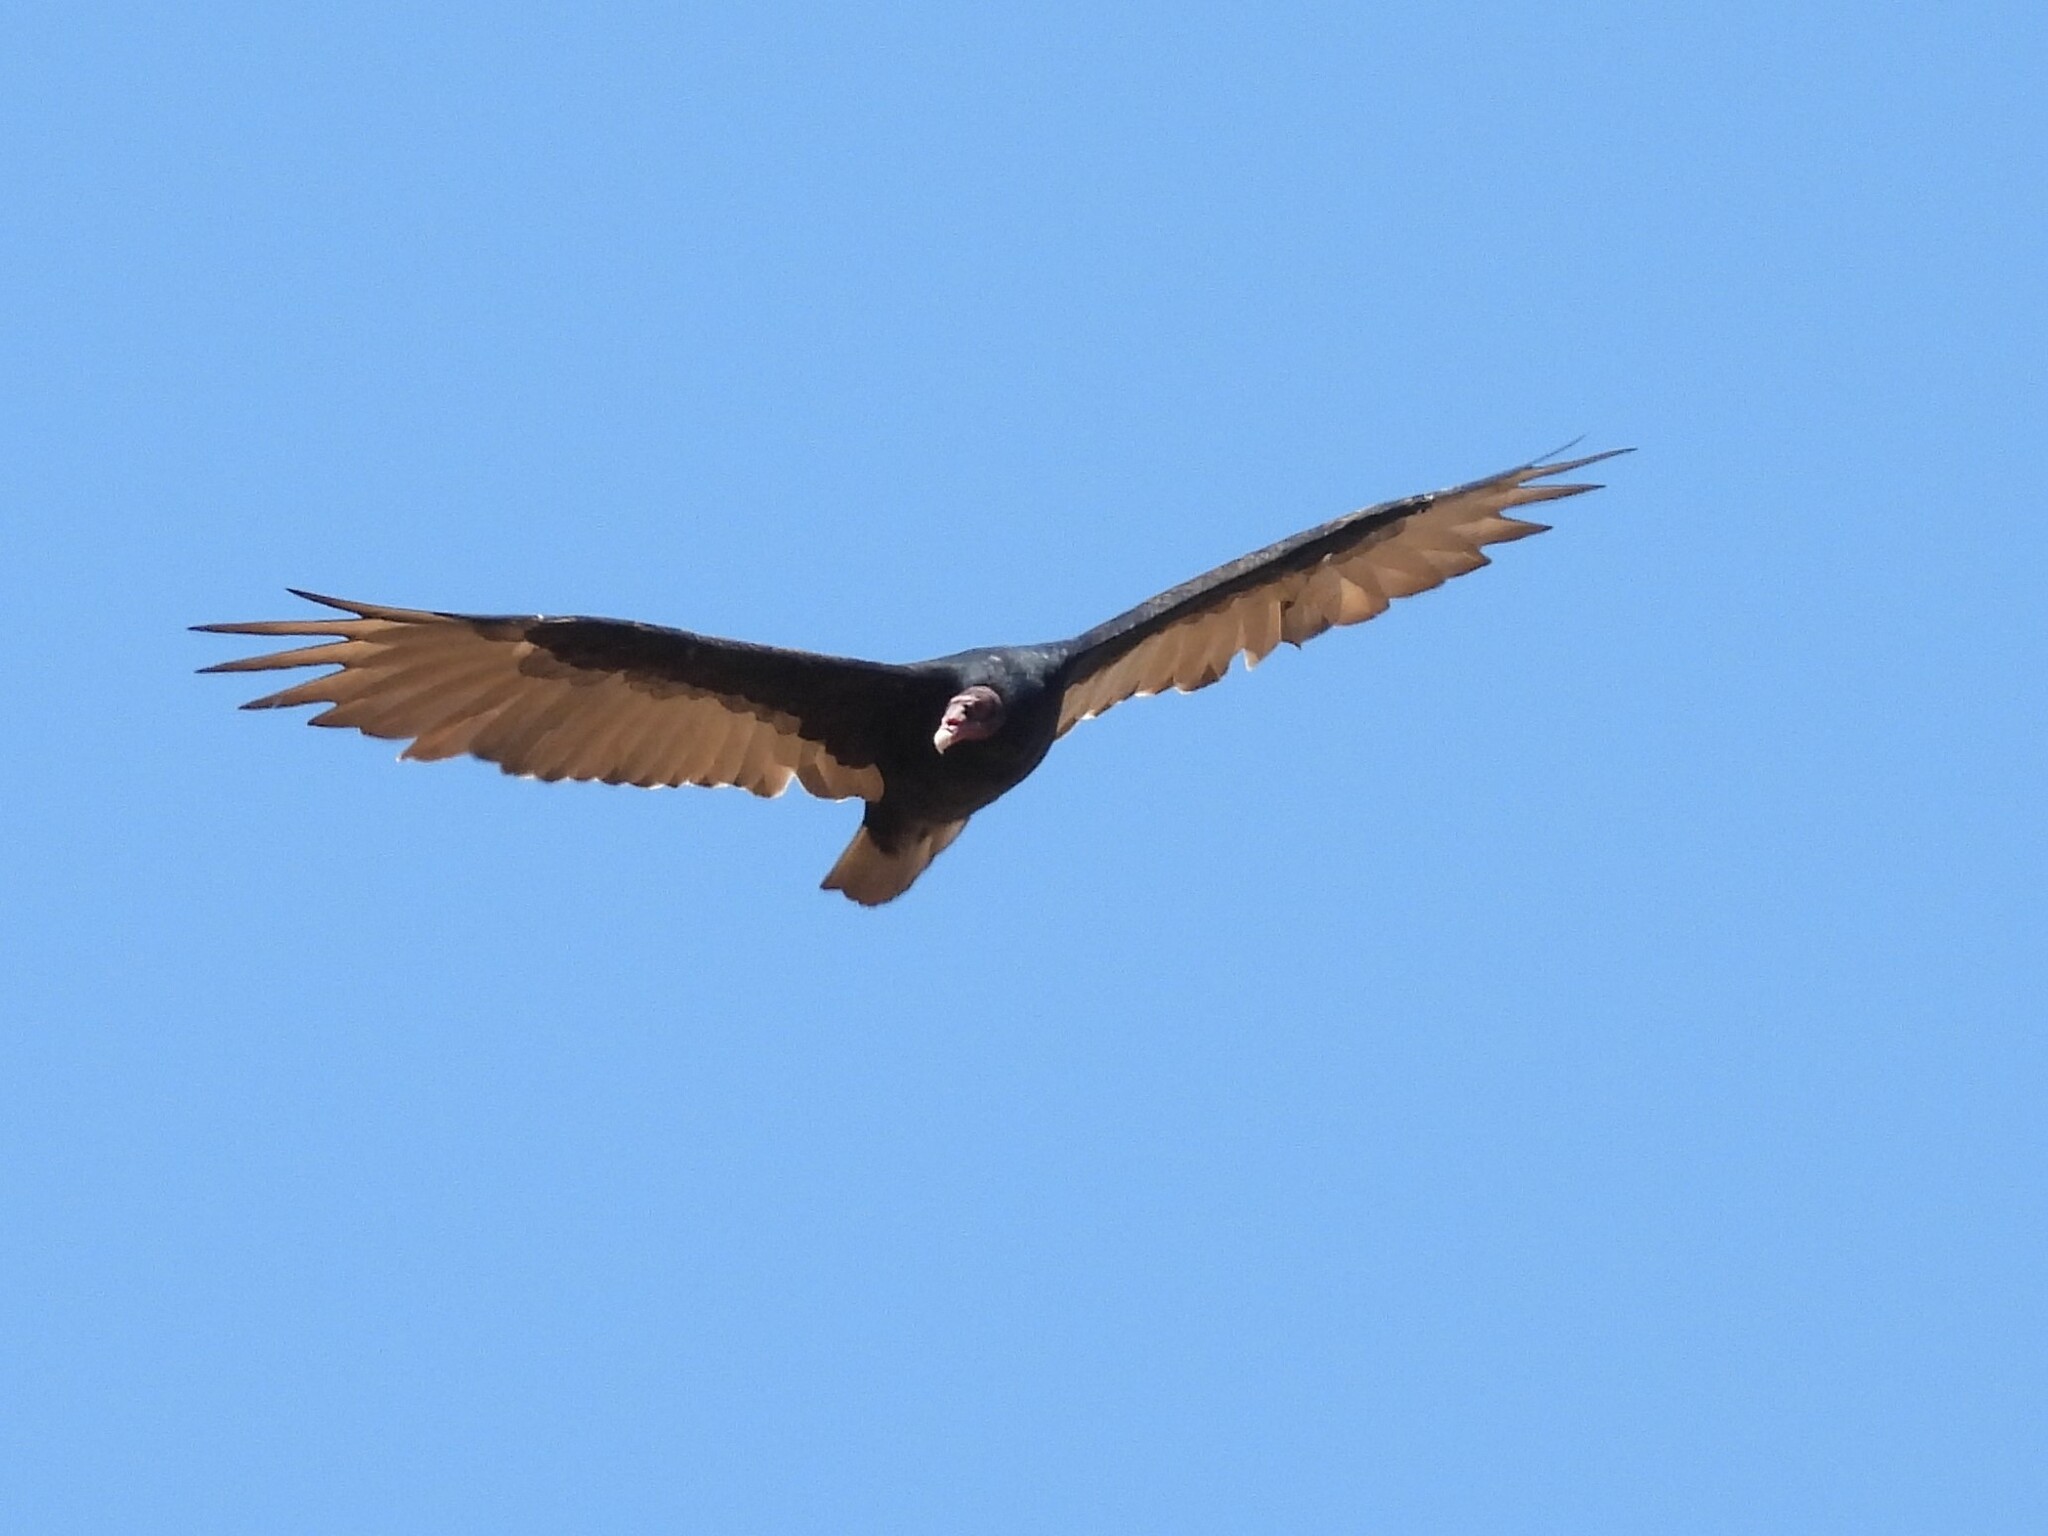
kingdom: Animalia
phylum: Chordata
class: Aves
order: Accipitriformes
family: Cathartidae
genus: Cathartes
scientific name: Cathartes aura
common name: Turkey vulture
